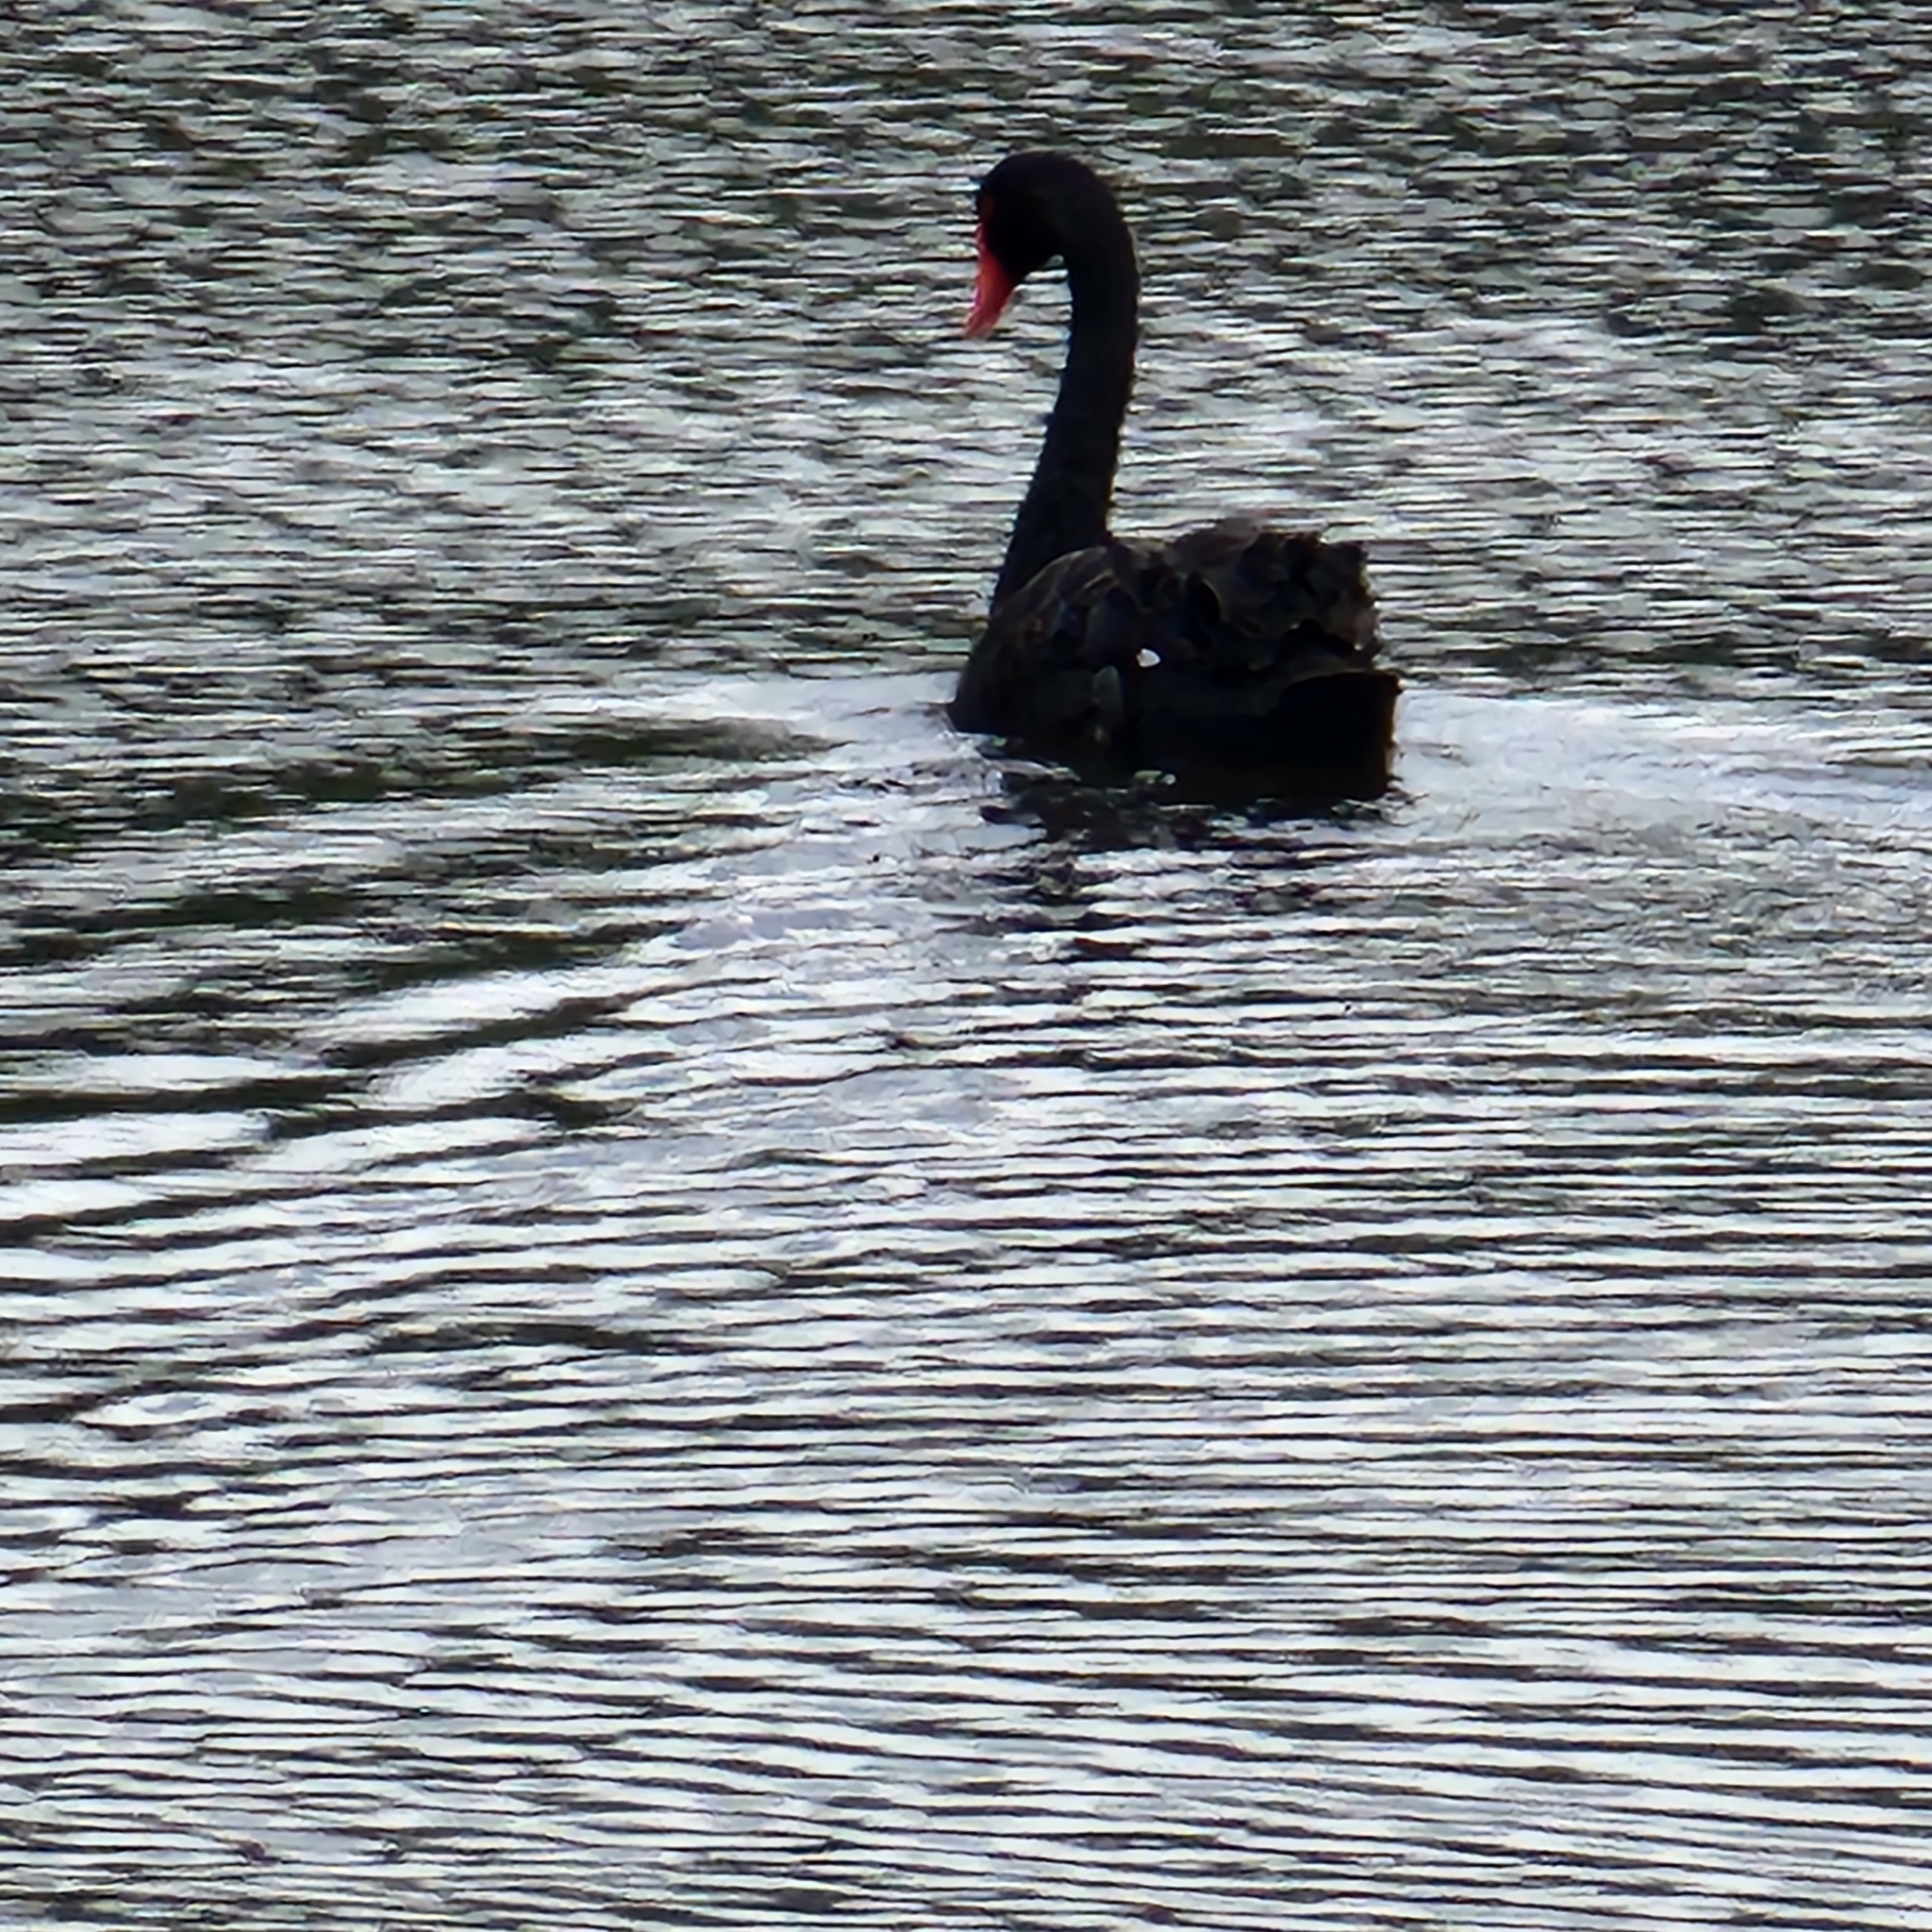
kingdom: Animalia
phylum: Chordata
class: Aves
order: Anseriformes
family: Anatidae
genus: Cygnus
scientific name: Cygnus atratus
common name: Black swan
